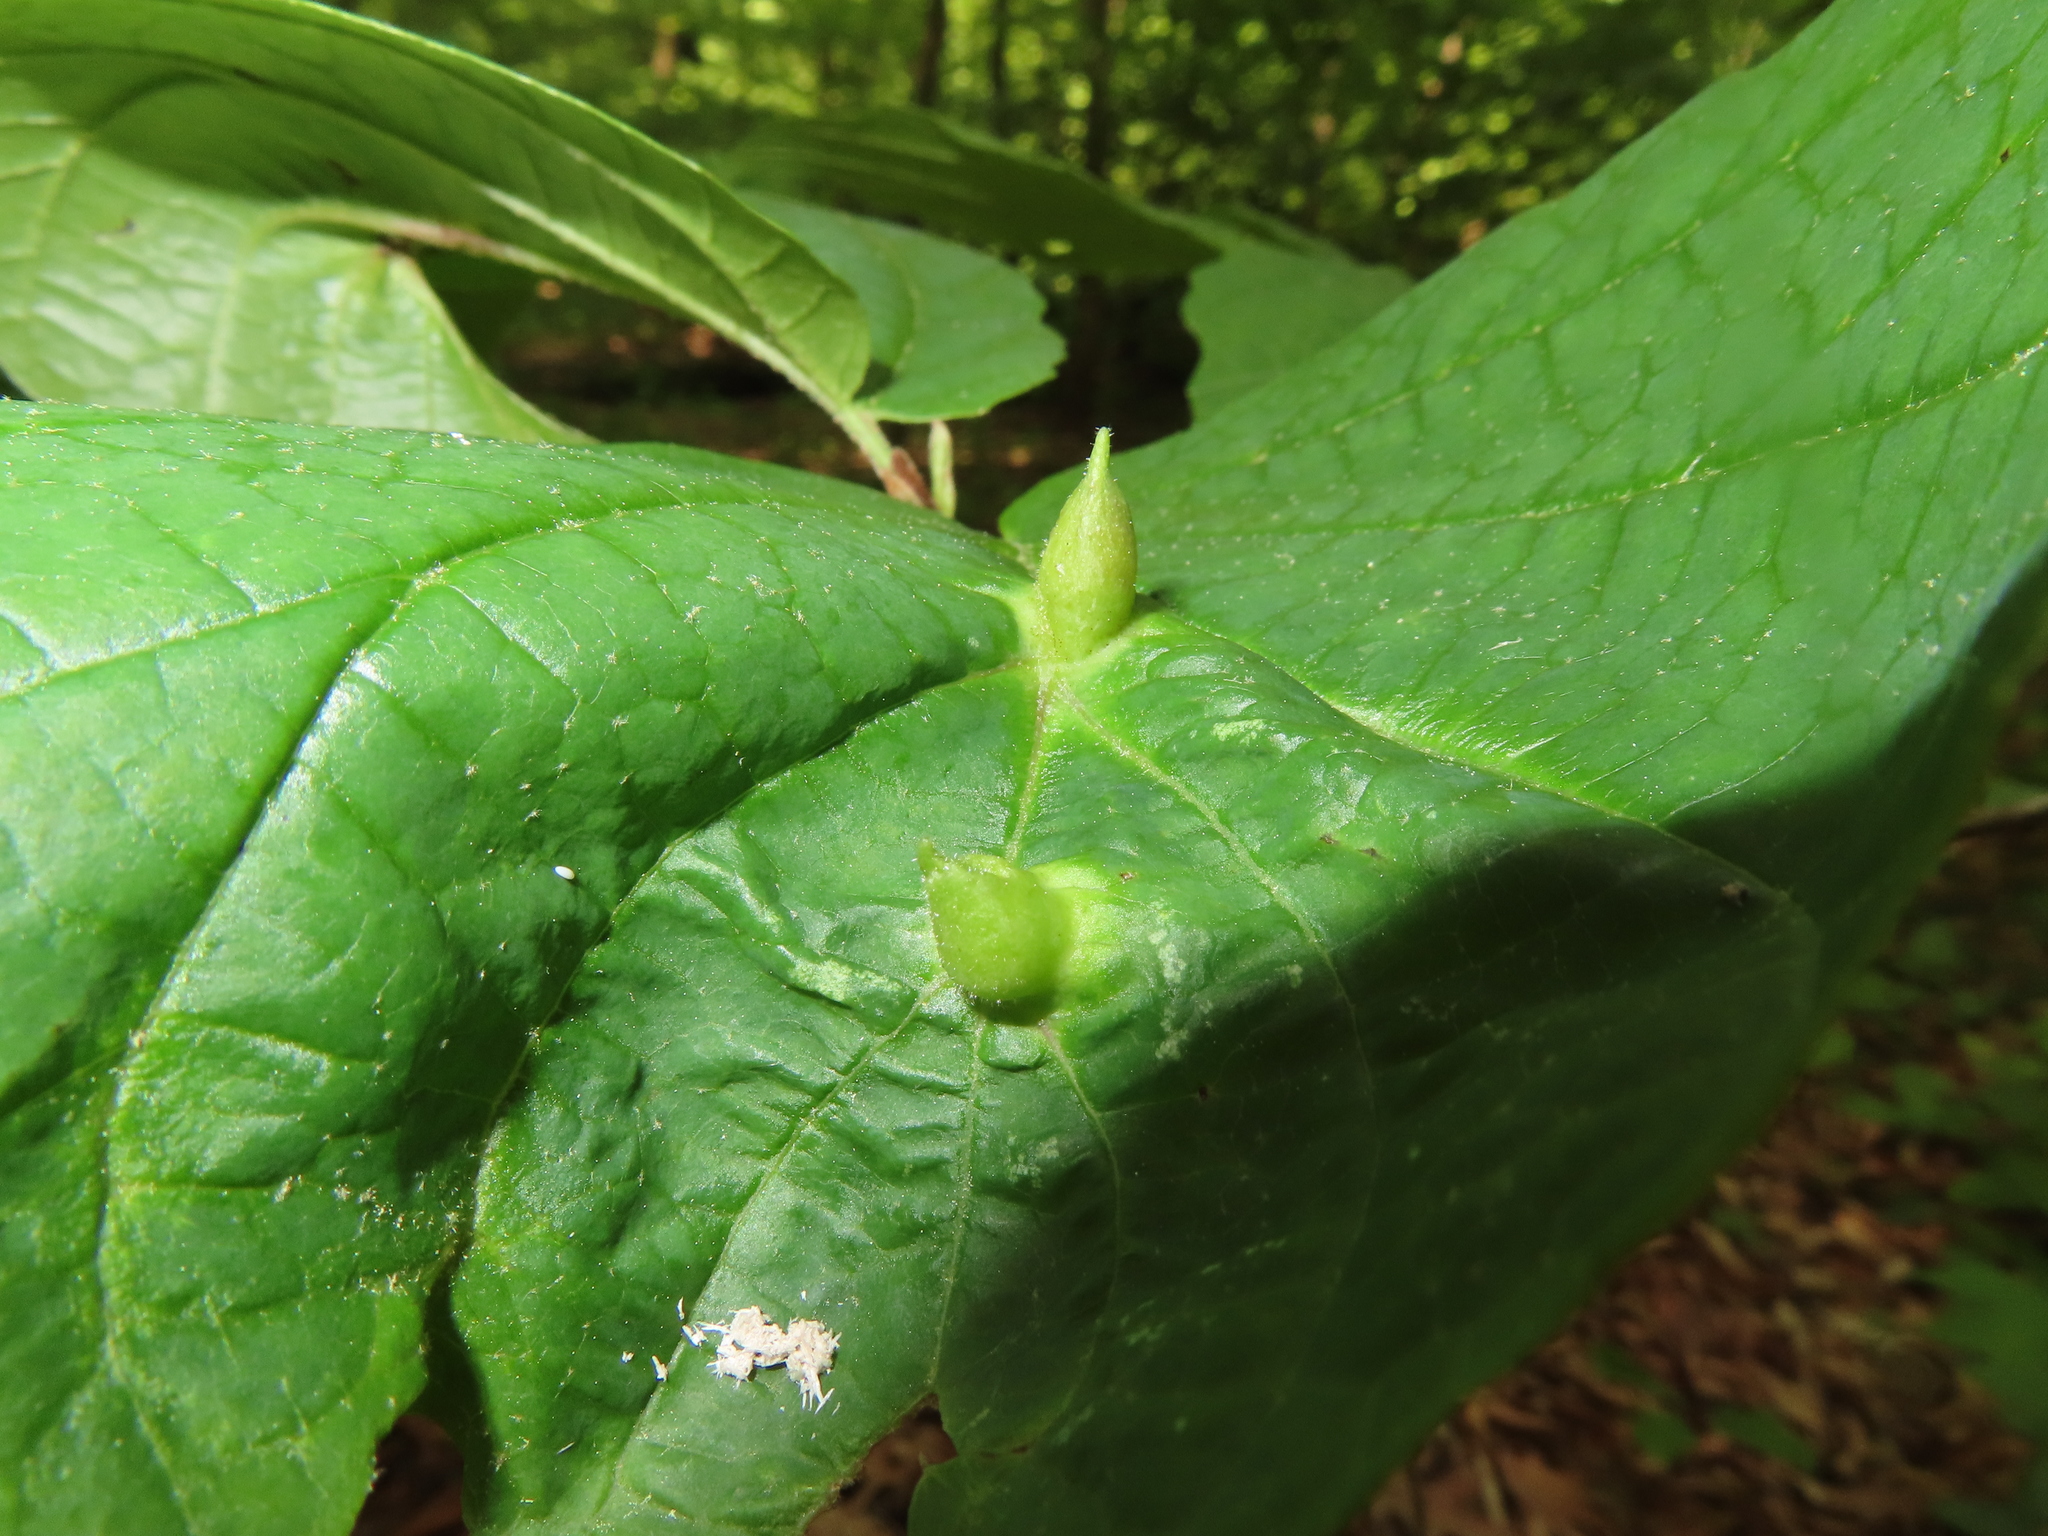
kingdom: Animalia
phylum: Arthropoda
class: Insecta
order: Hemiptera
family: Aphididae
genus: Hormaphis
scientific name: Hormaphis hamamelidis
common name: Witch-hazel cone gall aphid
